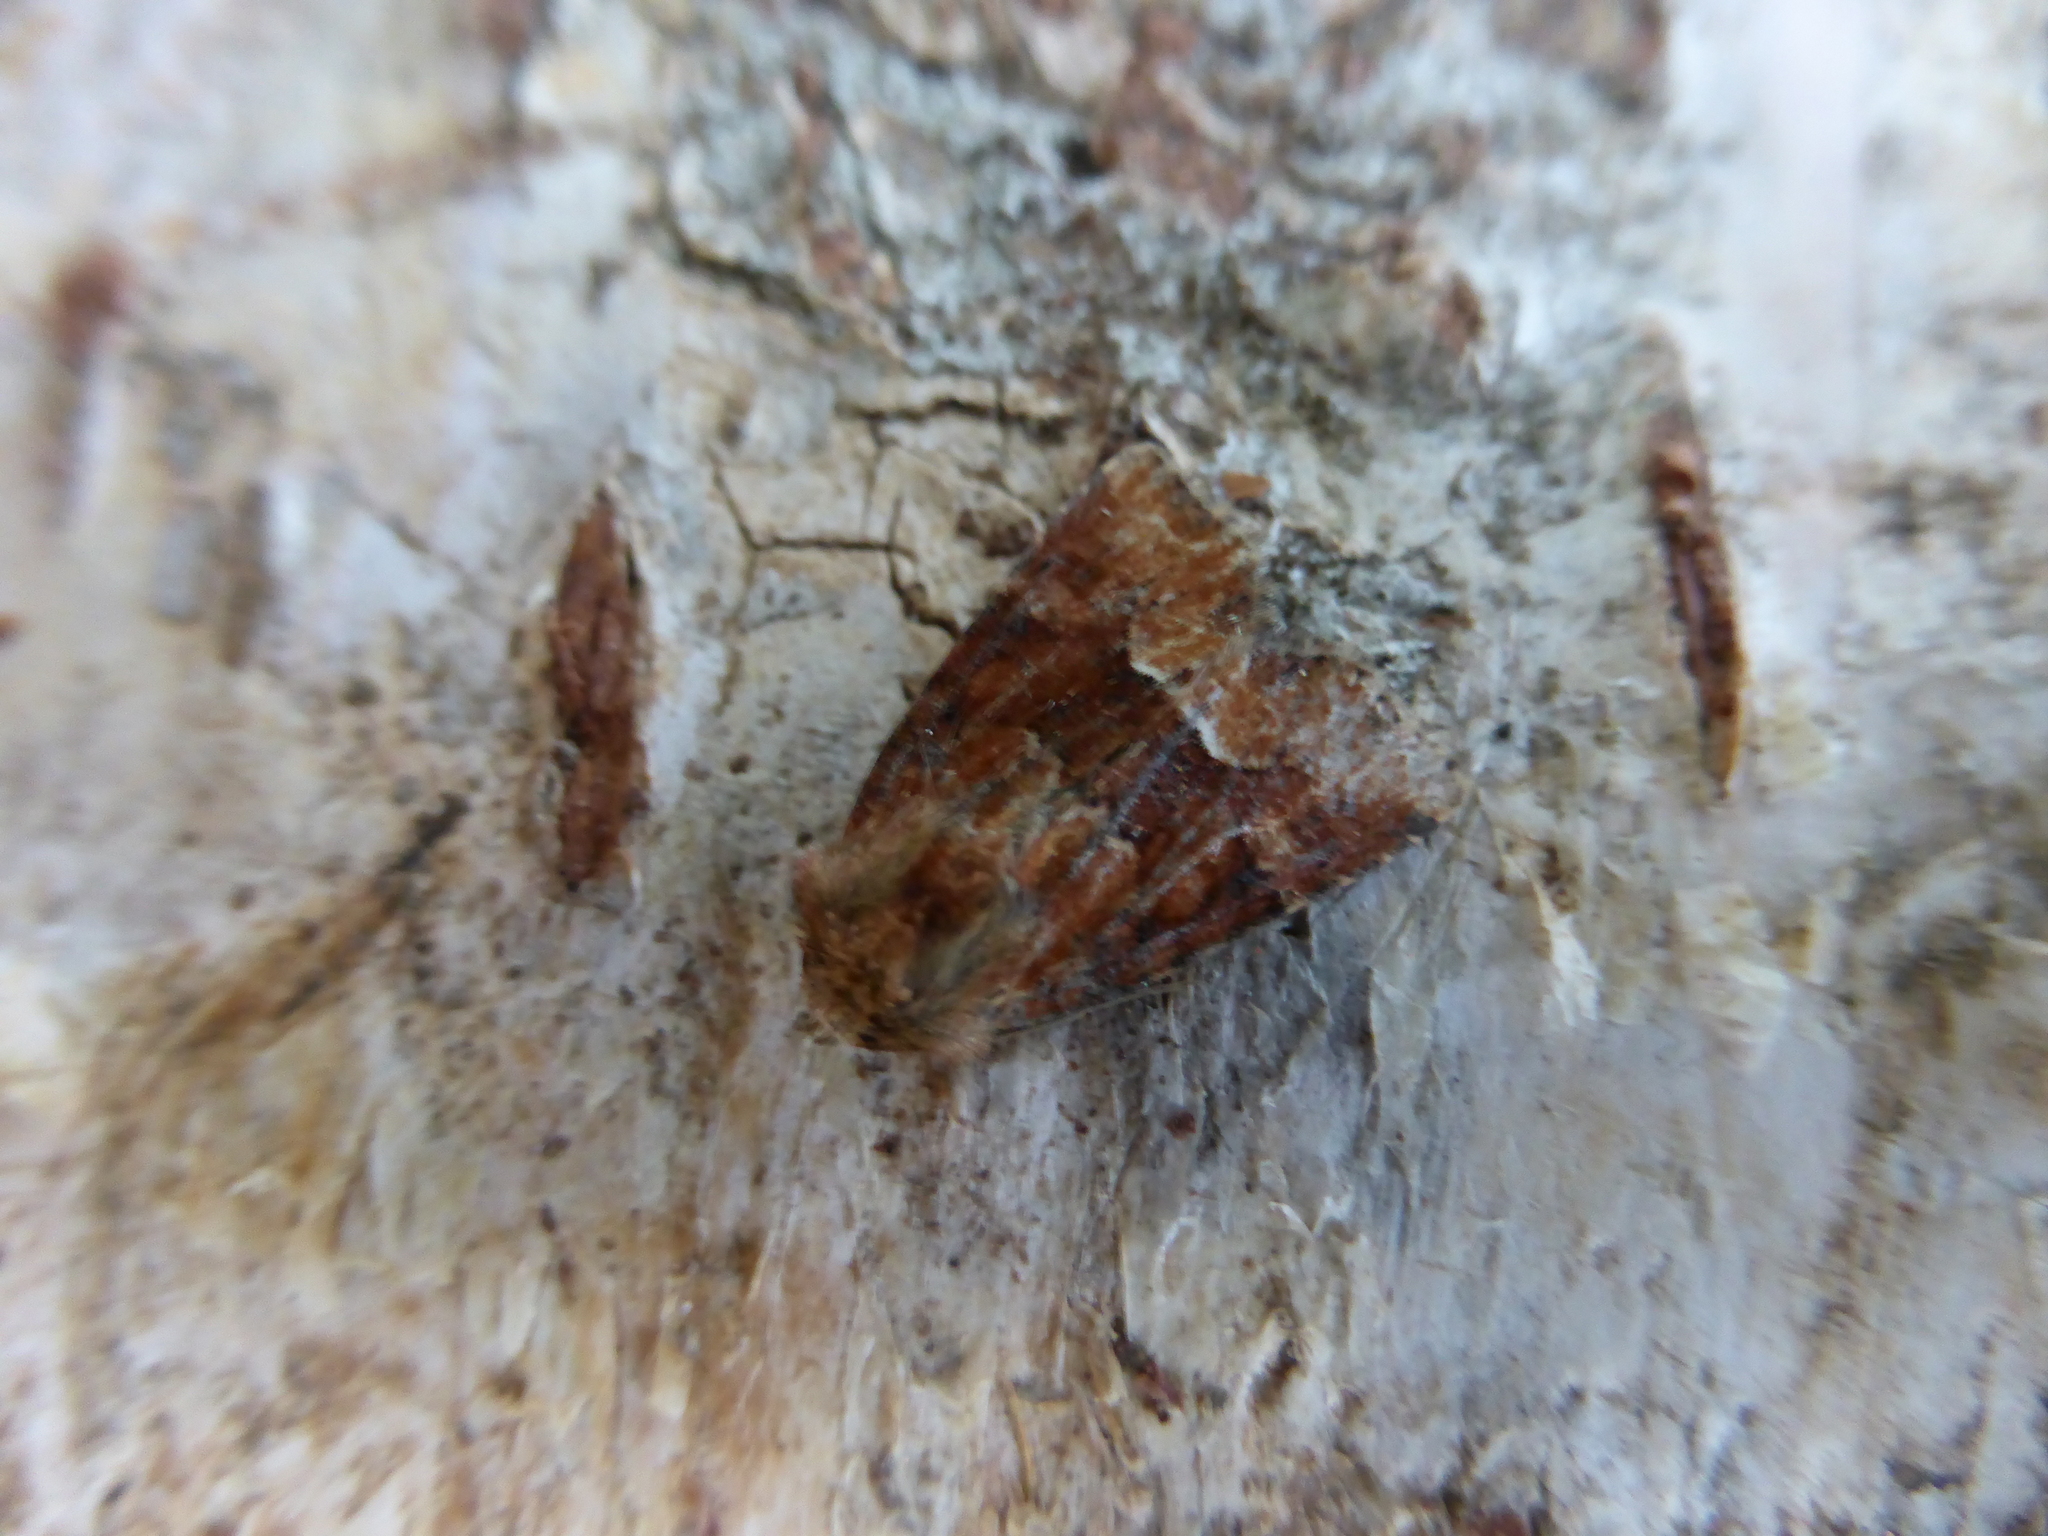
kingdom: Animalia
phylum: Arthropoda
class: Insecta
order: Lepidoptera
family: Noctuidae
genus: Oligia
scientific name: Oligia fasciuncula
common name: Middle-barred minor
